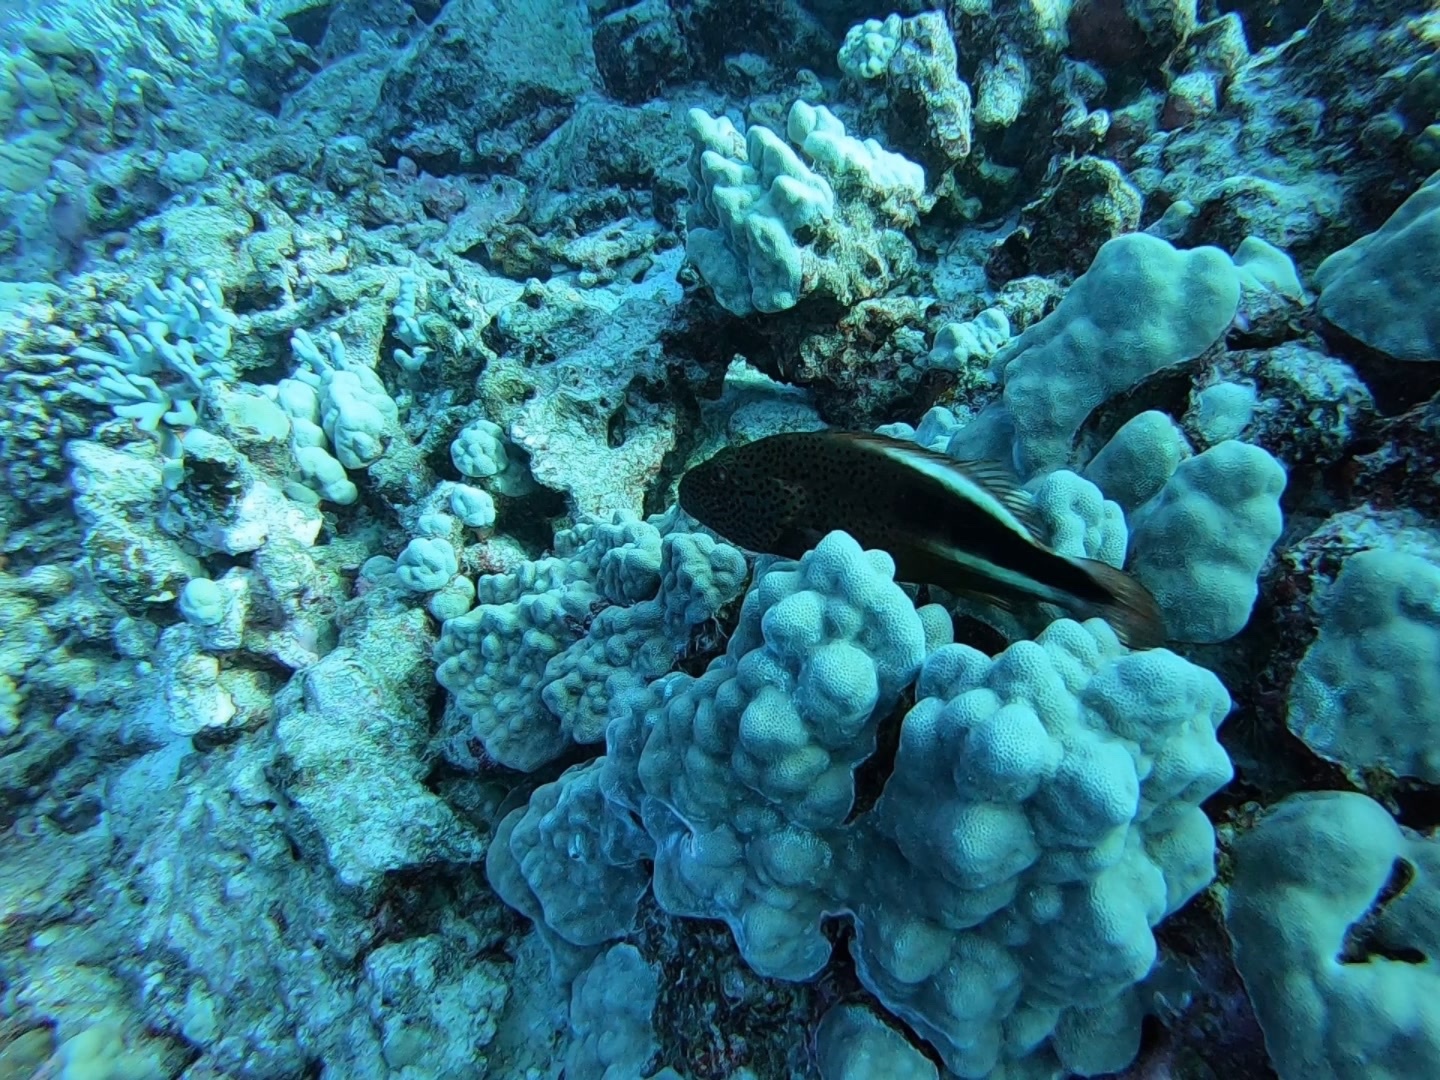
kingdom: Animalia
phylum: Chordata
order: Perciformes
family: Cirrhitidae
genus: Paracirrhites
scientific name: Paracirrhites forsteri
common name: Freckled hawkfish
